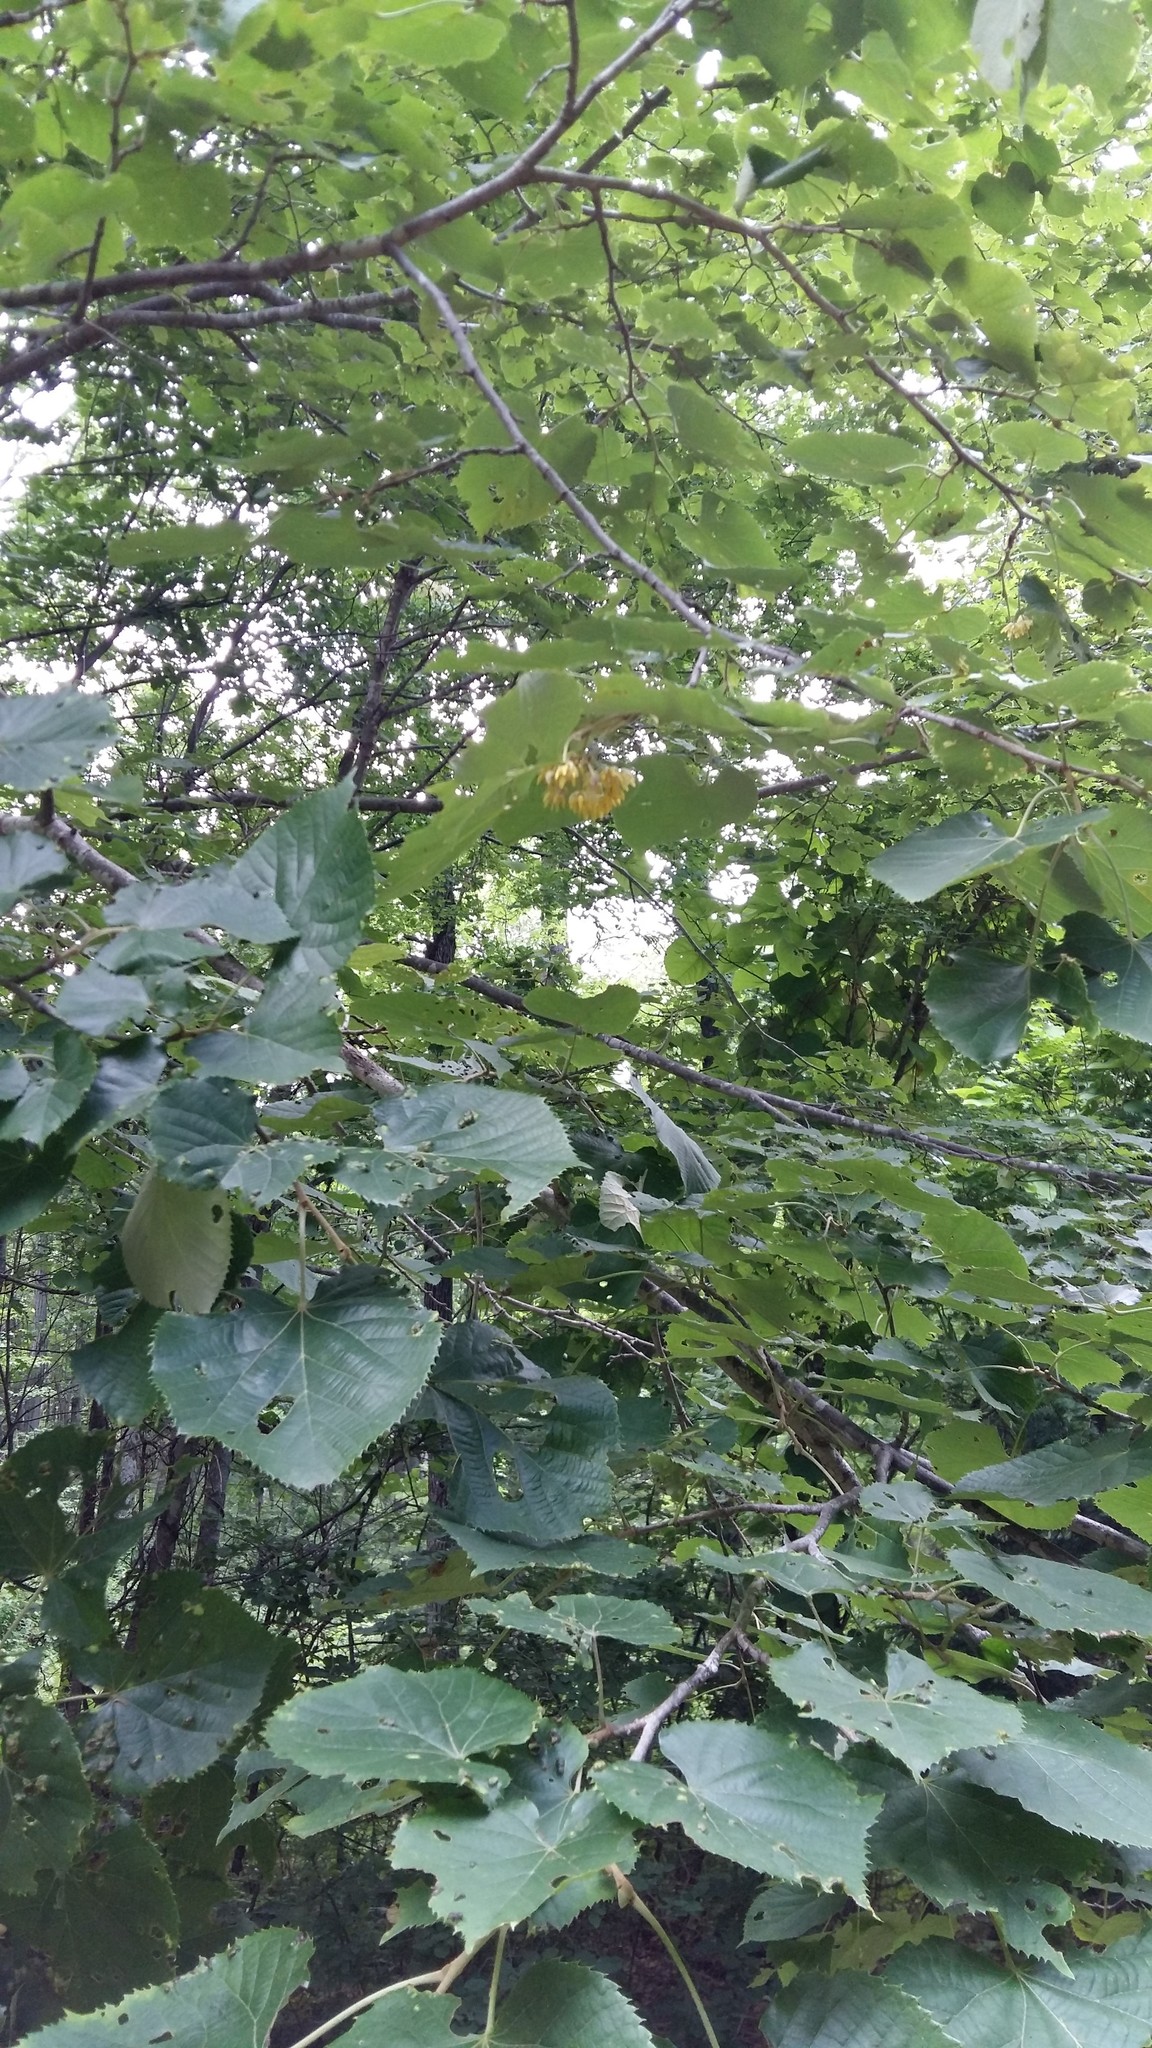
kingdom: Plantae
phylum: Tracheophyta
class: Magnoliopsida
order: Malvales
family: Malvaceae
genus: Tilia
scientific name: Tilia mandshurica
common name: Manchurian linden
